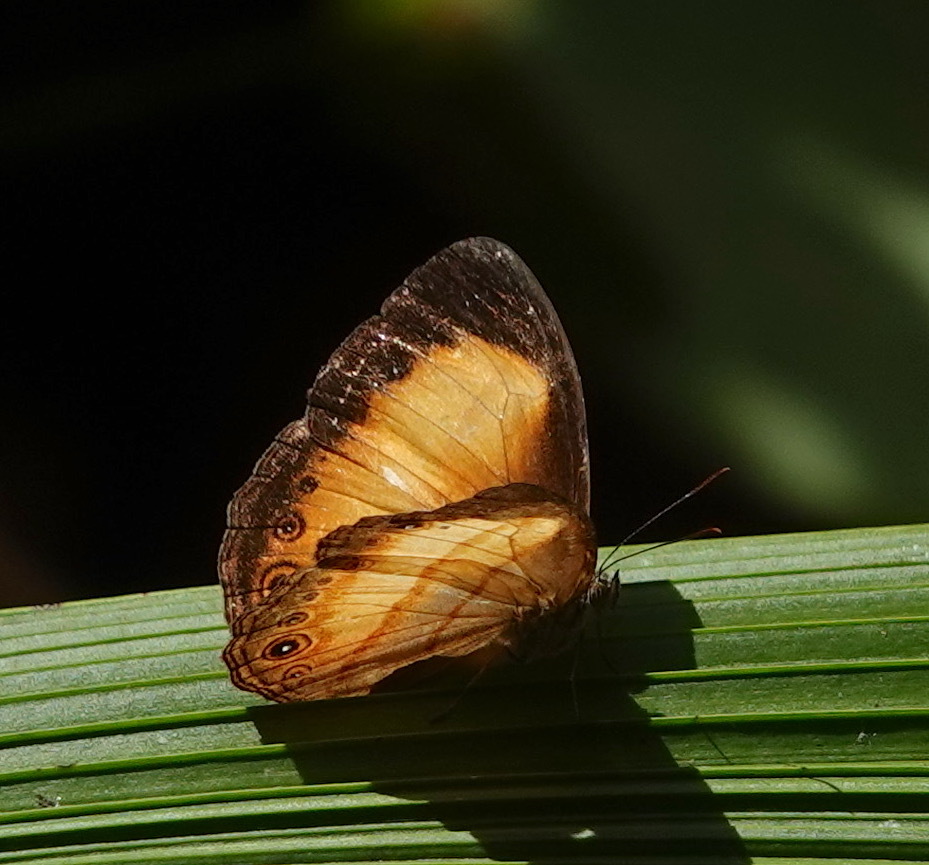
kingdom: Animalia
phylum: Arthropoda
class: Insecta
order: Lepidoptera
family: Nymphalidae
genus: Mycalesis
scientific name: Mycalesis marginata
